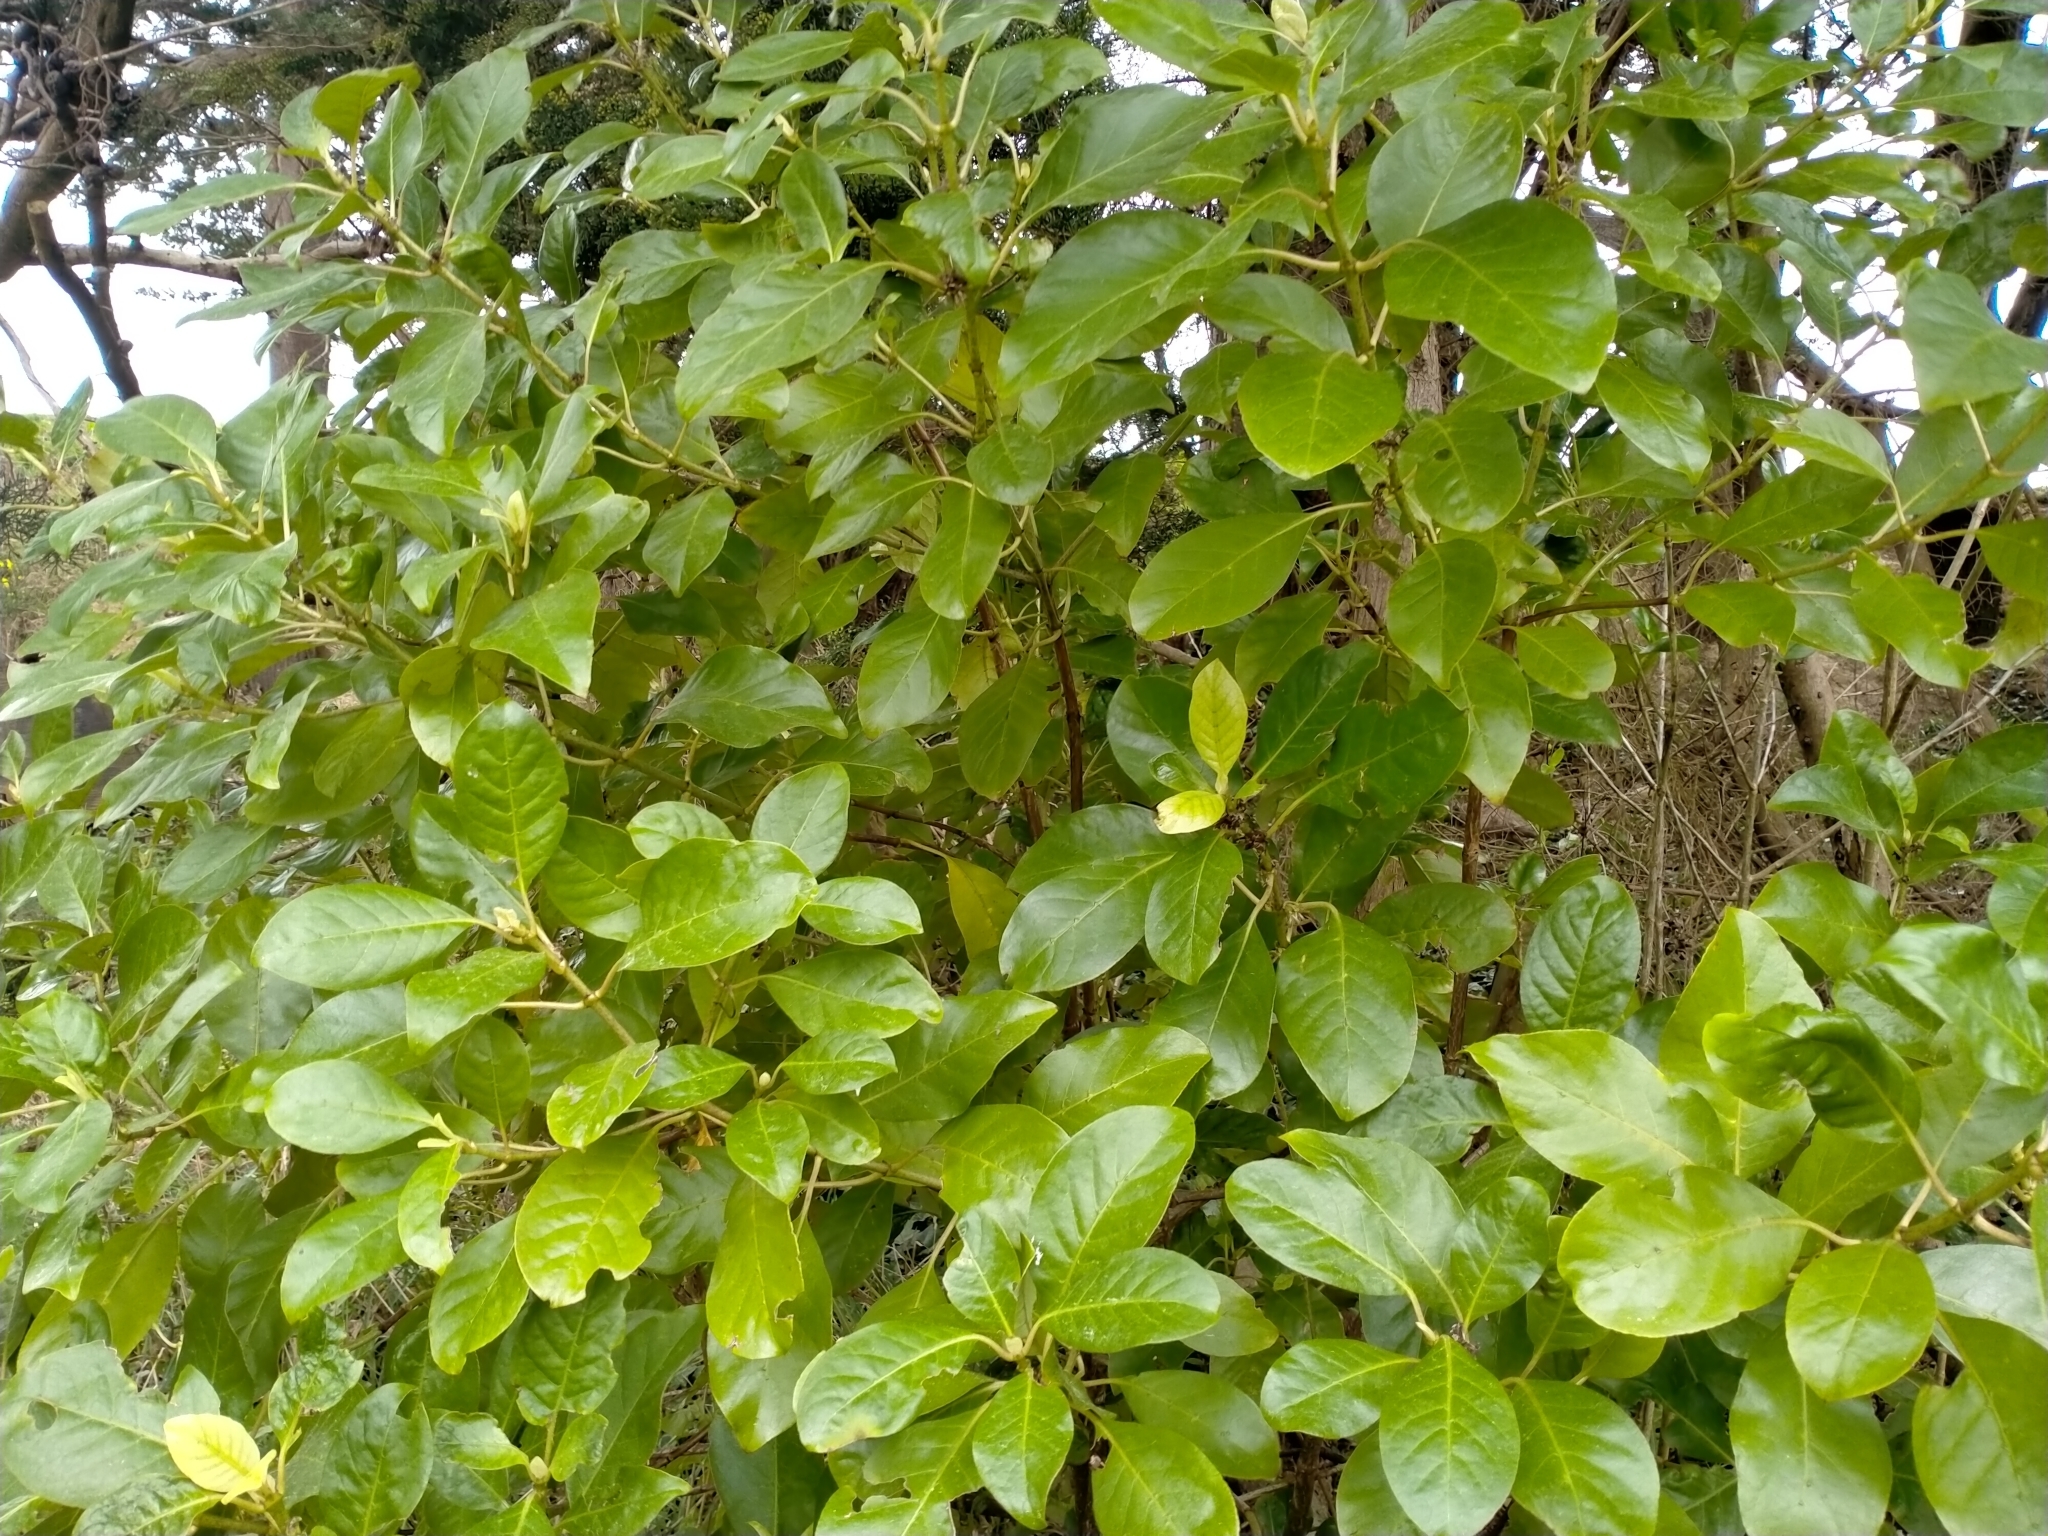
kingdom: Plantae
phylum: Tracheophyta
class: Magnoliopsida
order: Gentianales
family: Rubiaceae
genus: Coprosma
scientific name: Coprosma autumnalis
